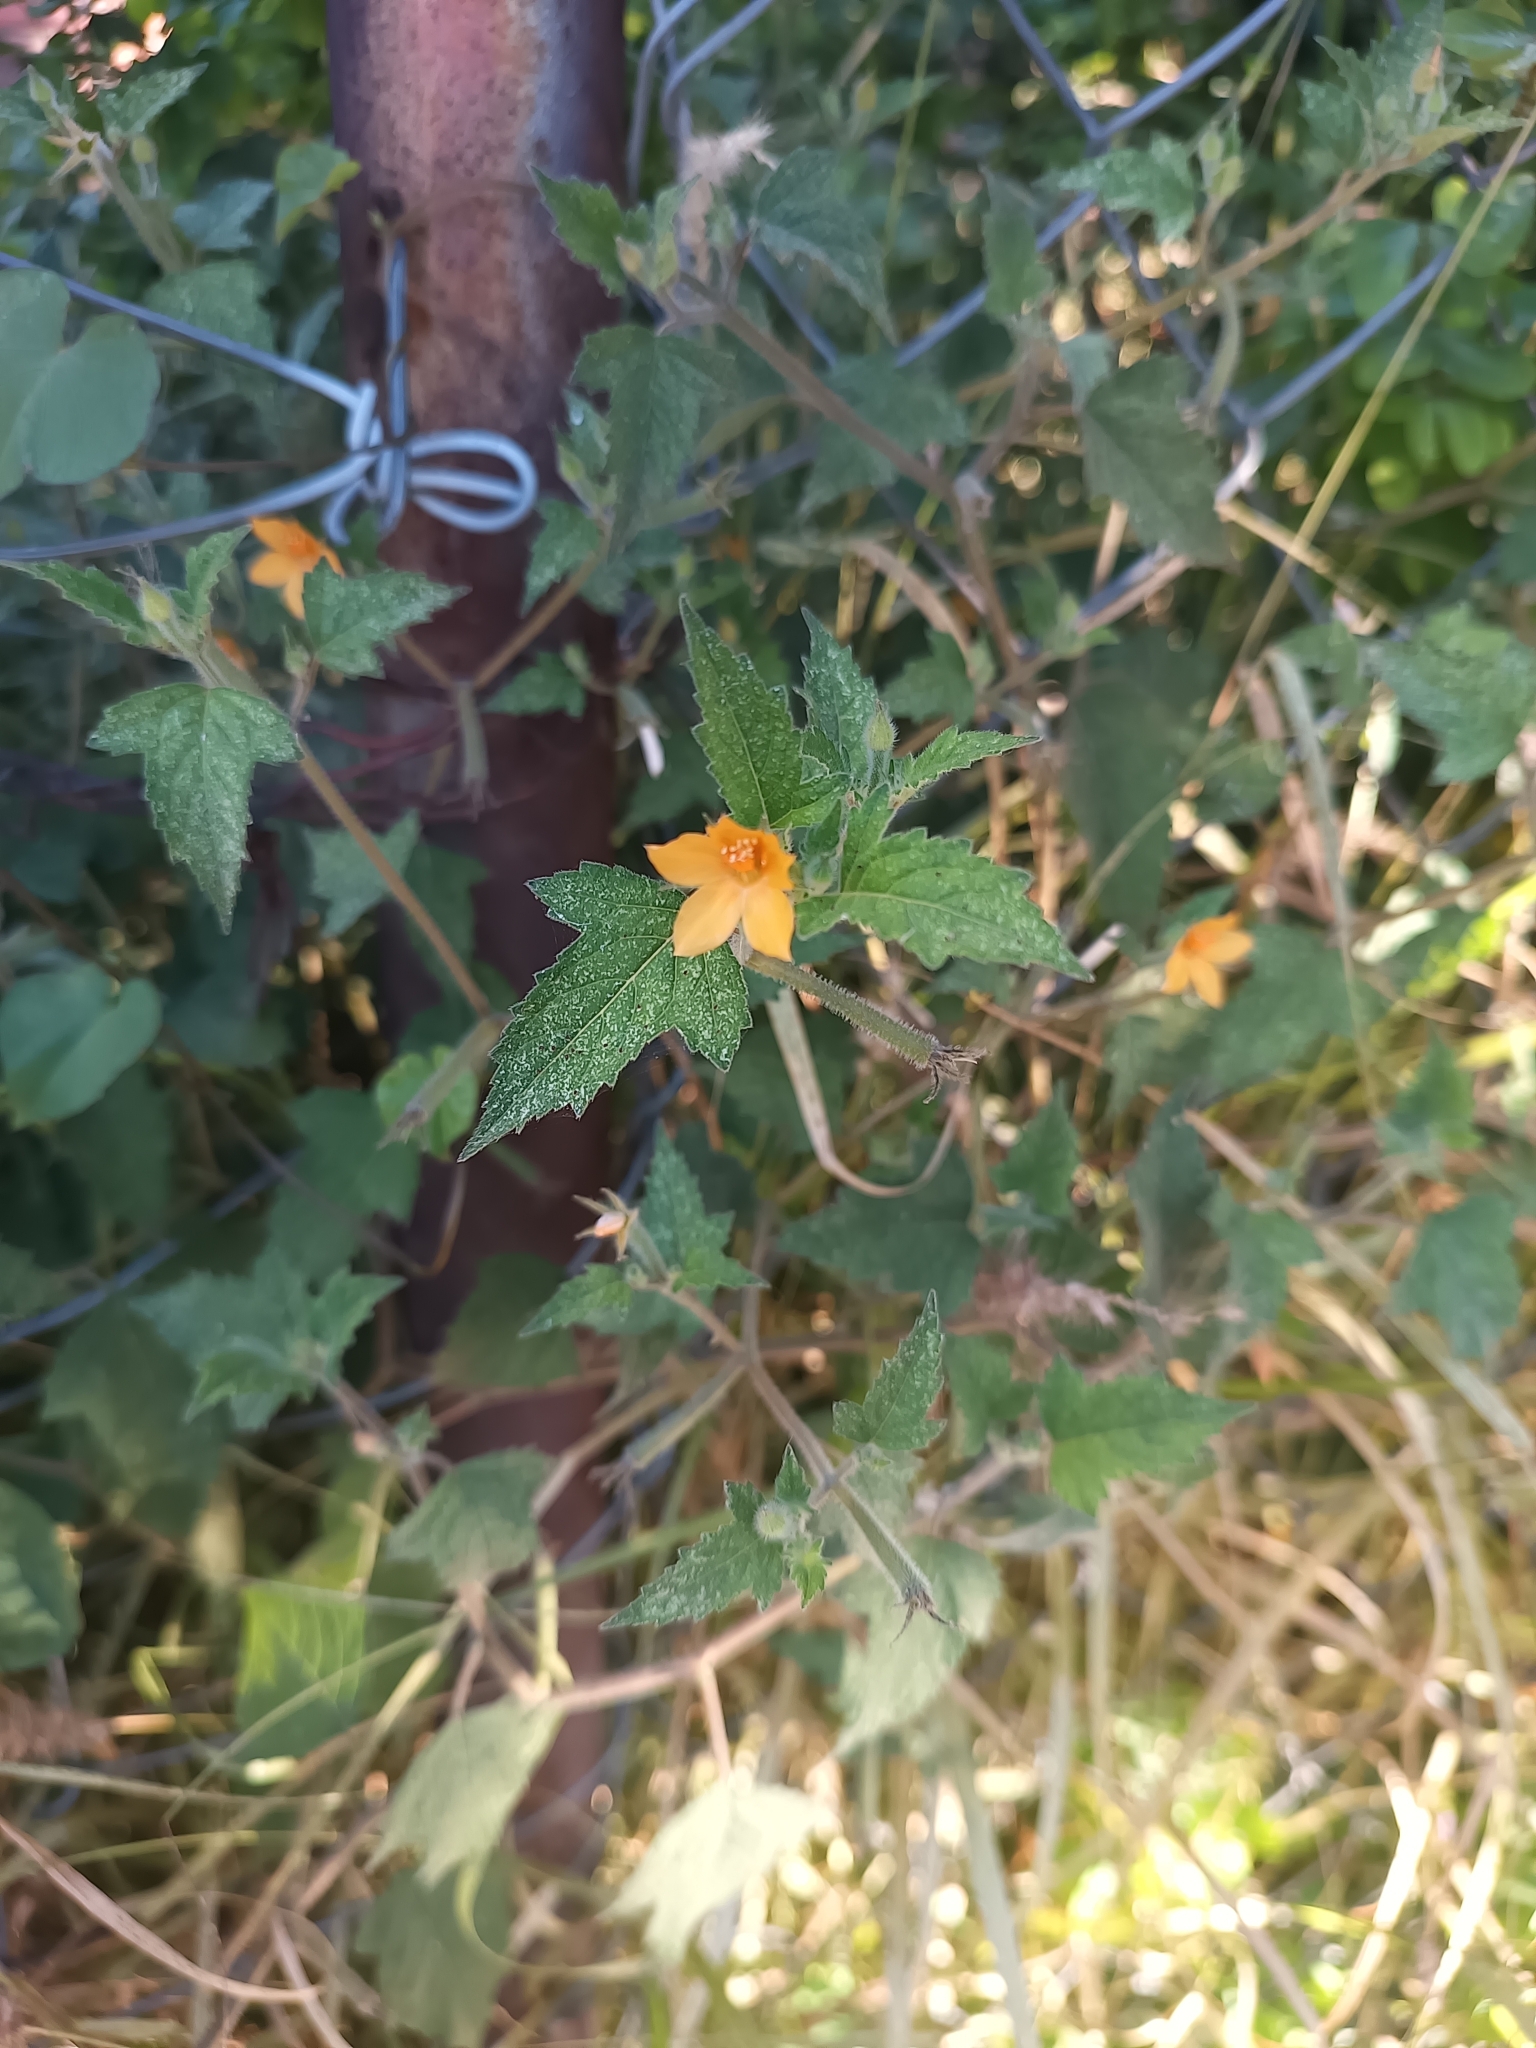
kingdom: Plantae
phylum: Tracheophyta
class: Magnoliopsida
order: Cornales
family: Loasaceae
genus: Mentzelia
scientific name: Mentzelia aspera
